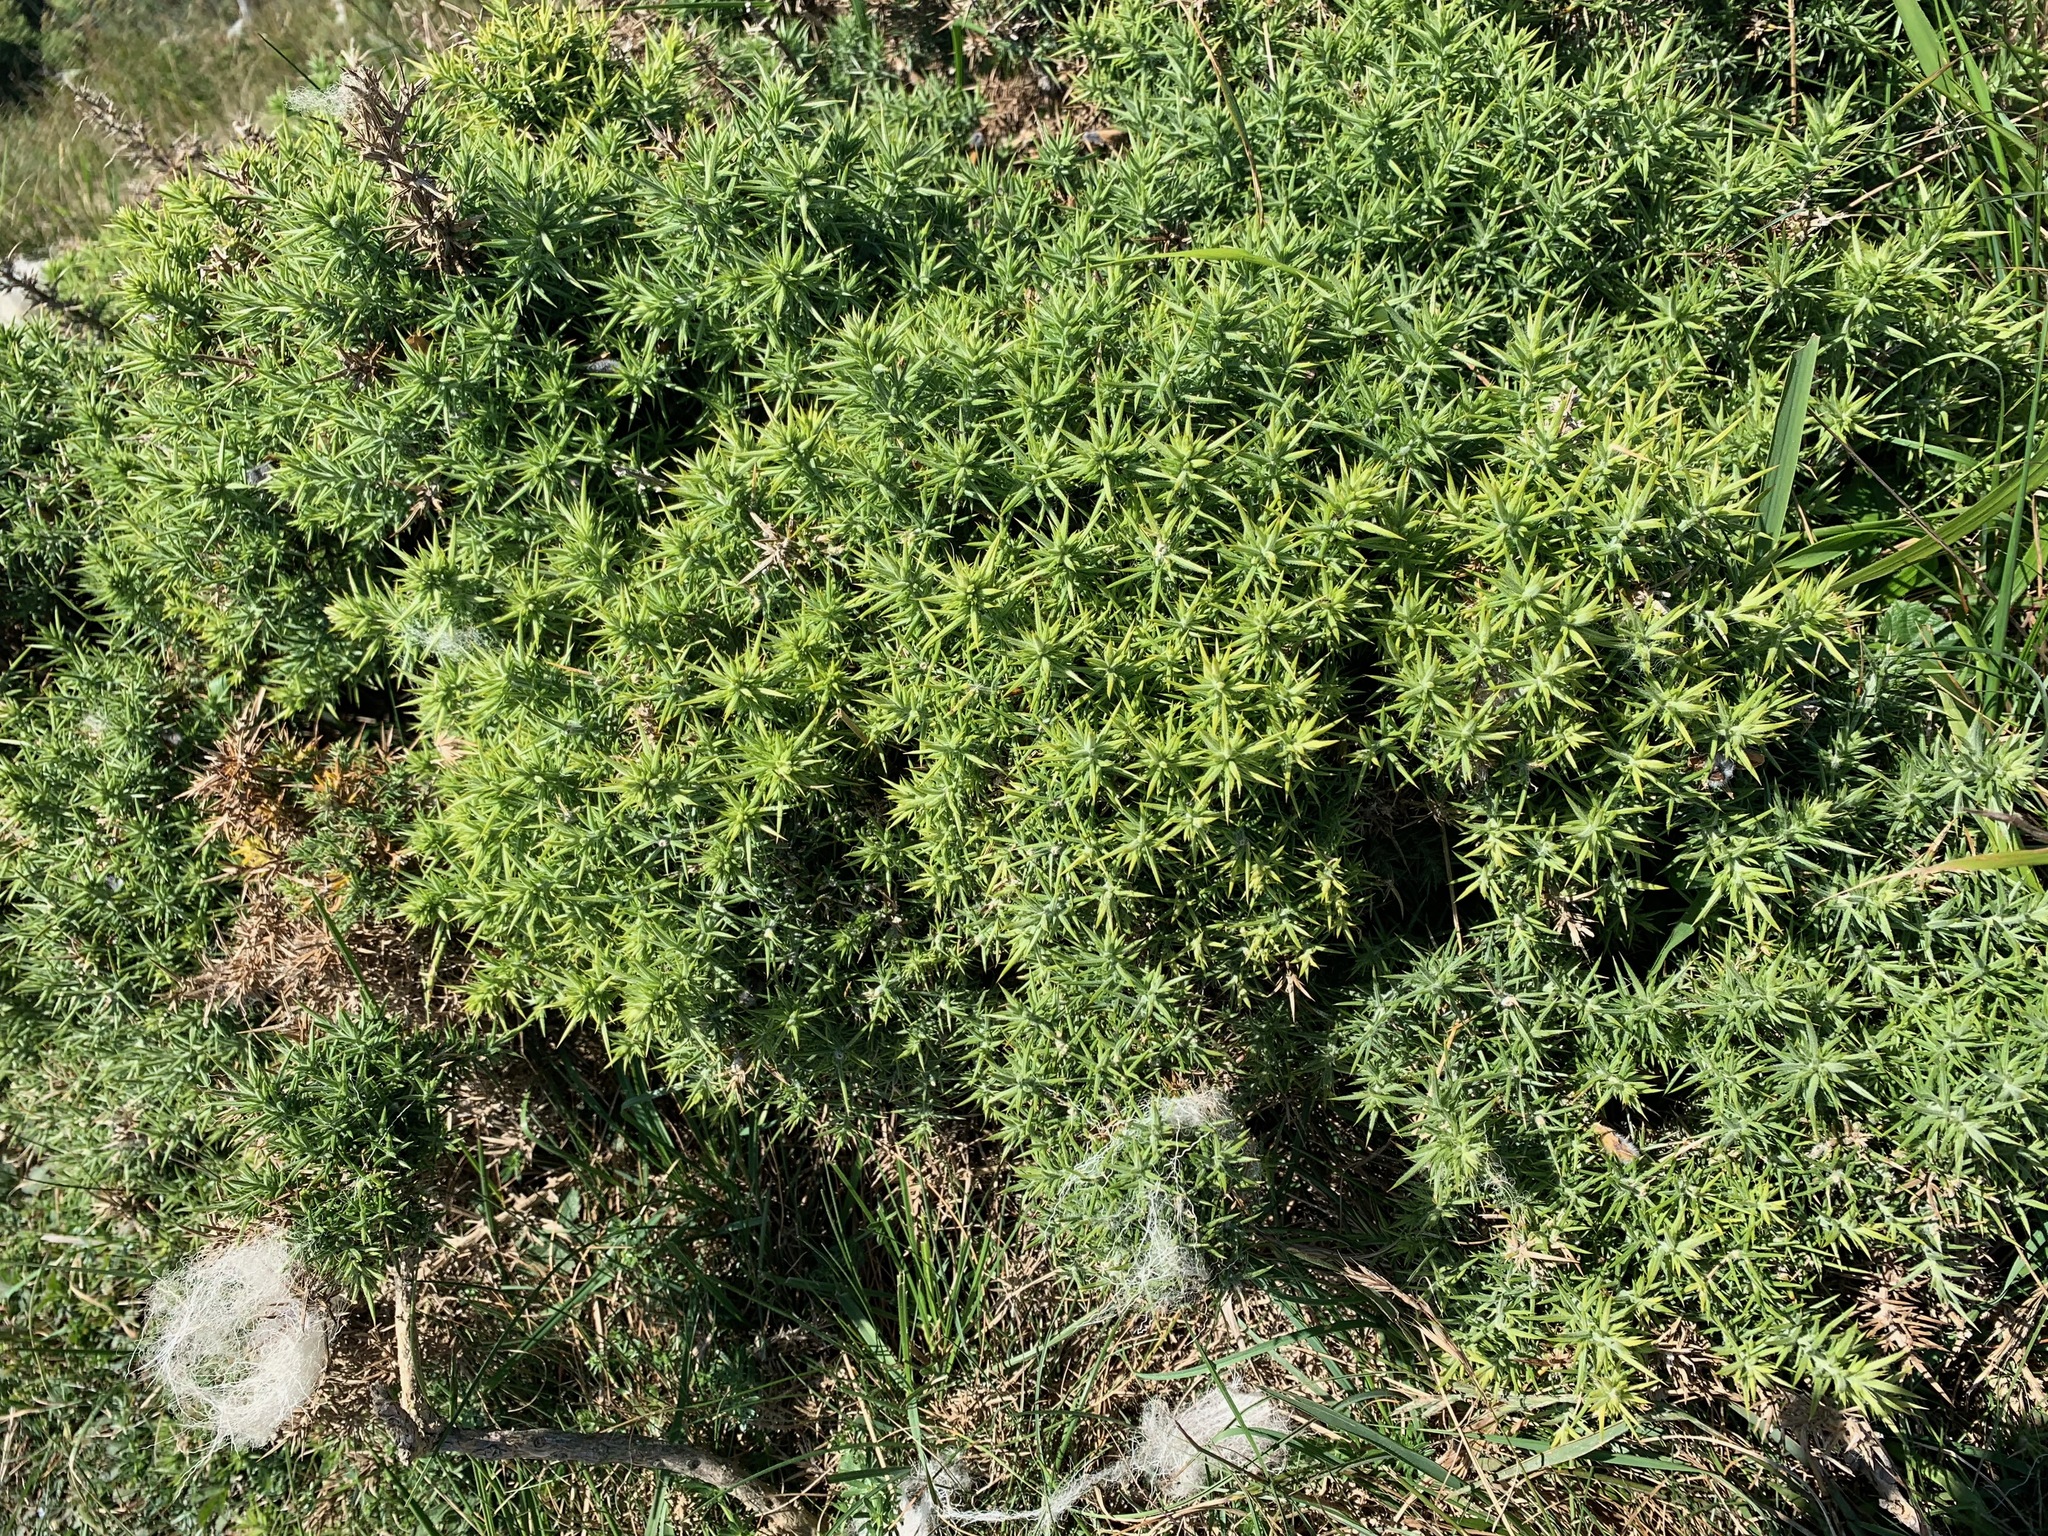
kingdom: Plantae
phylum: Tracheophyta
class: Magnoliopsida
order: Fabales
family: Fabaceae
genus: Ulex
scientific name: Ulex europaeus
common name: Common gorse
